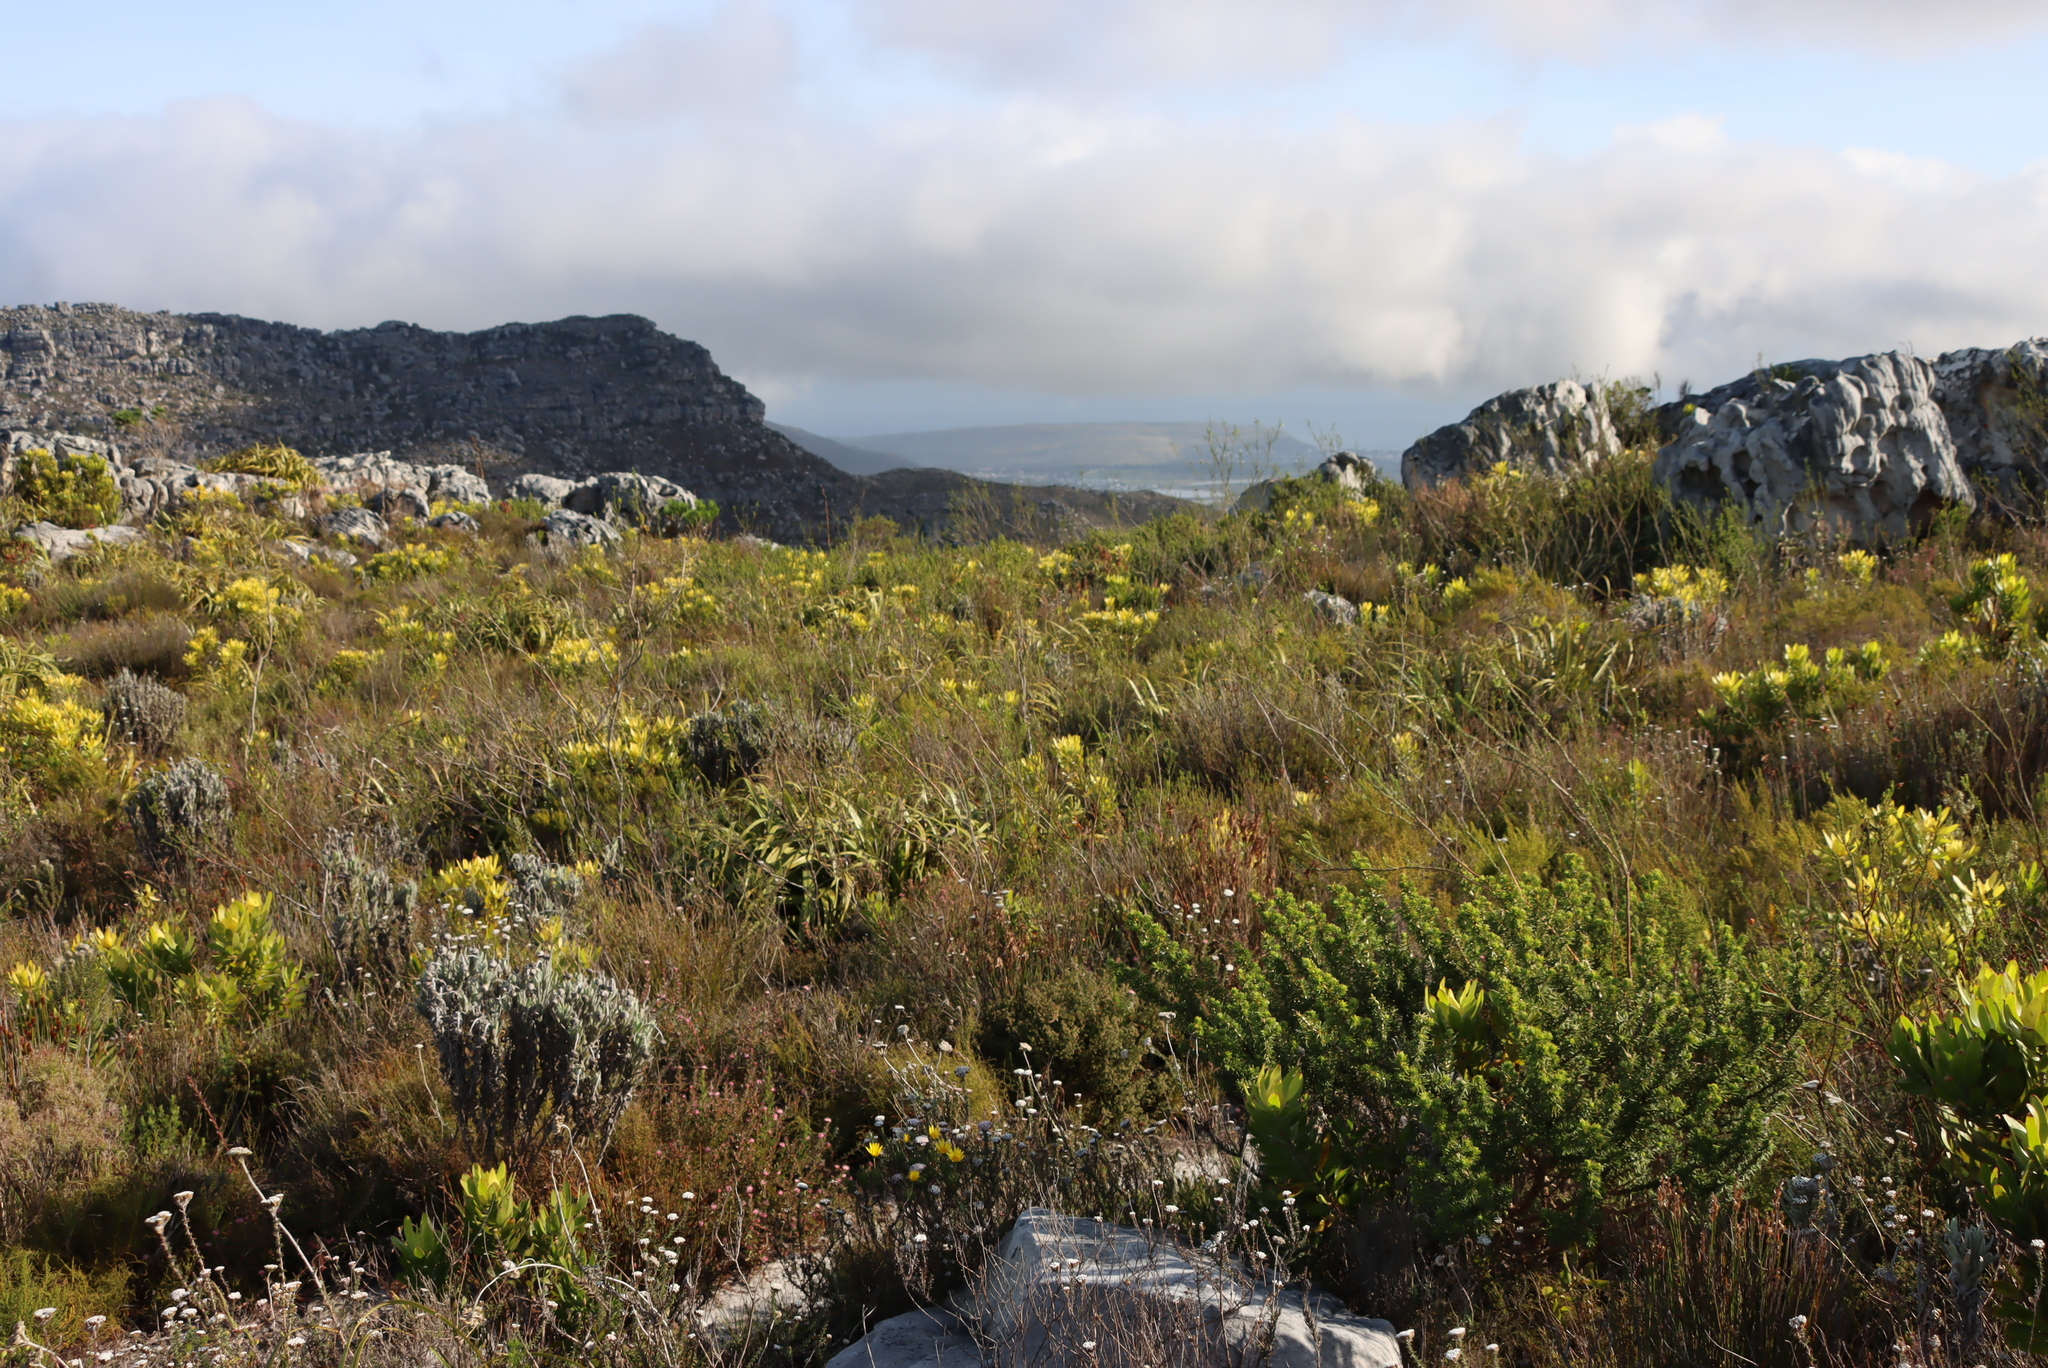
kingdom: Plantae
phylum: Tracheophyta
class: Magnoliopsida
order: Ericales
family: Ericaceae
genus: Erica
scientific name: Erica urna-viridis
